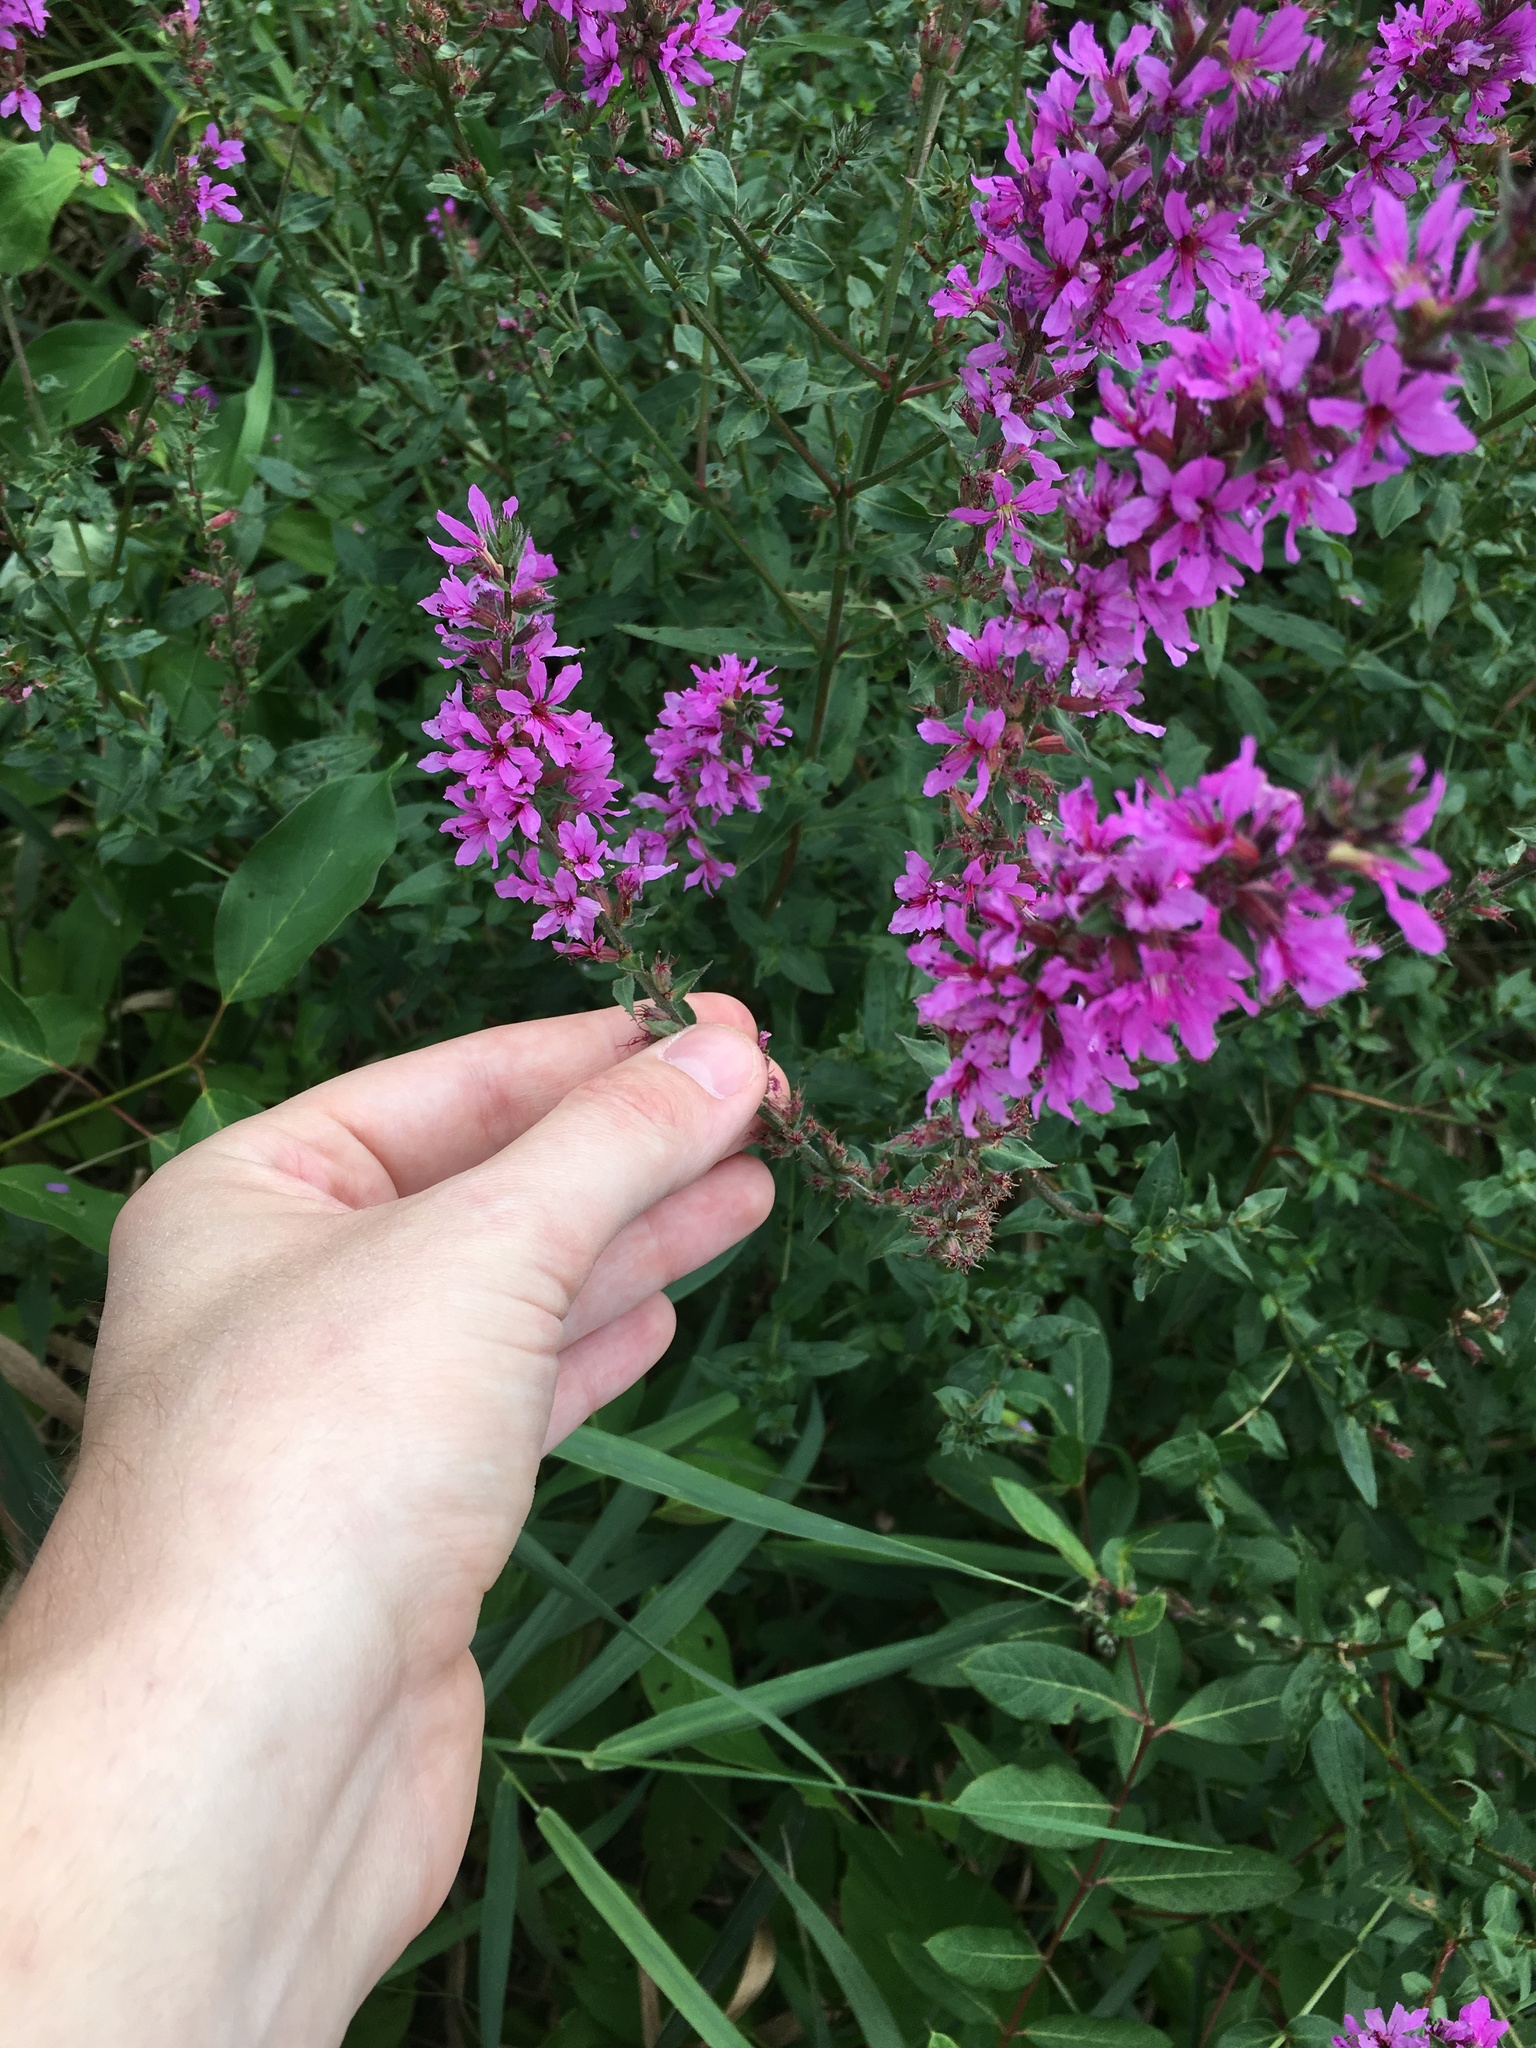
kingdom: Plantae
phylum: Tracheophyta
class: Magnoliopsida
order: Myrtales
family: Lythraceae
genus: Lythrum
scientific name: Lythrum salicaria
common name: Purple loosestrife
